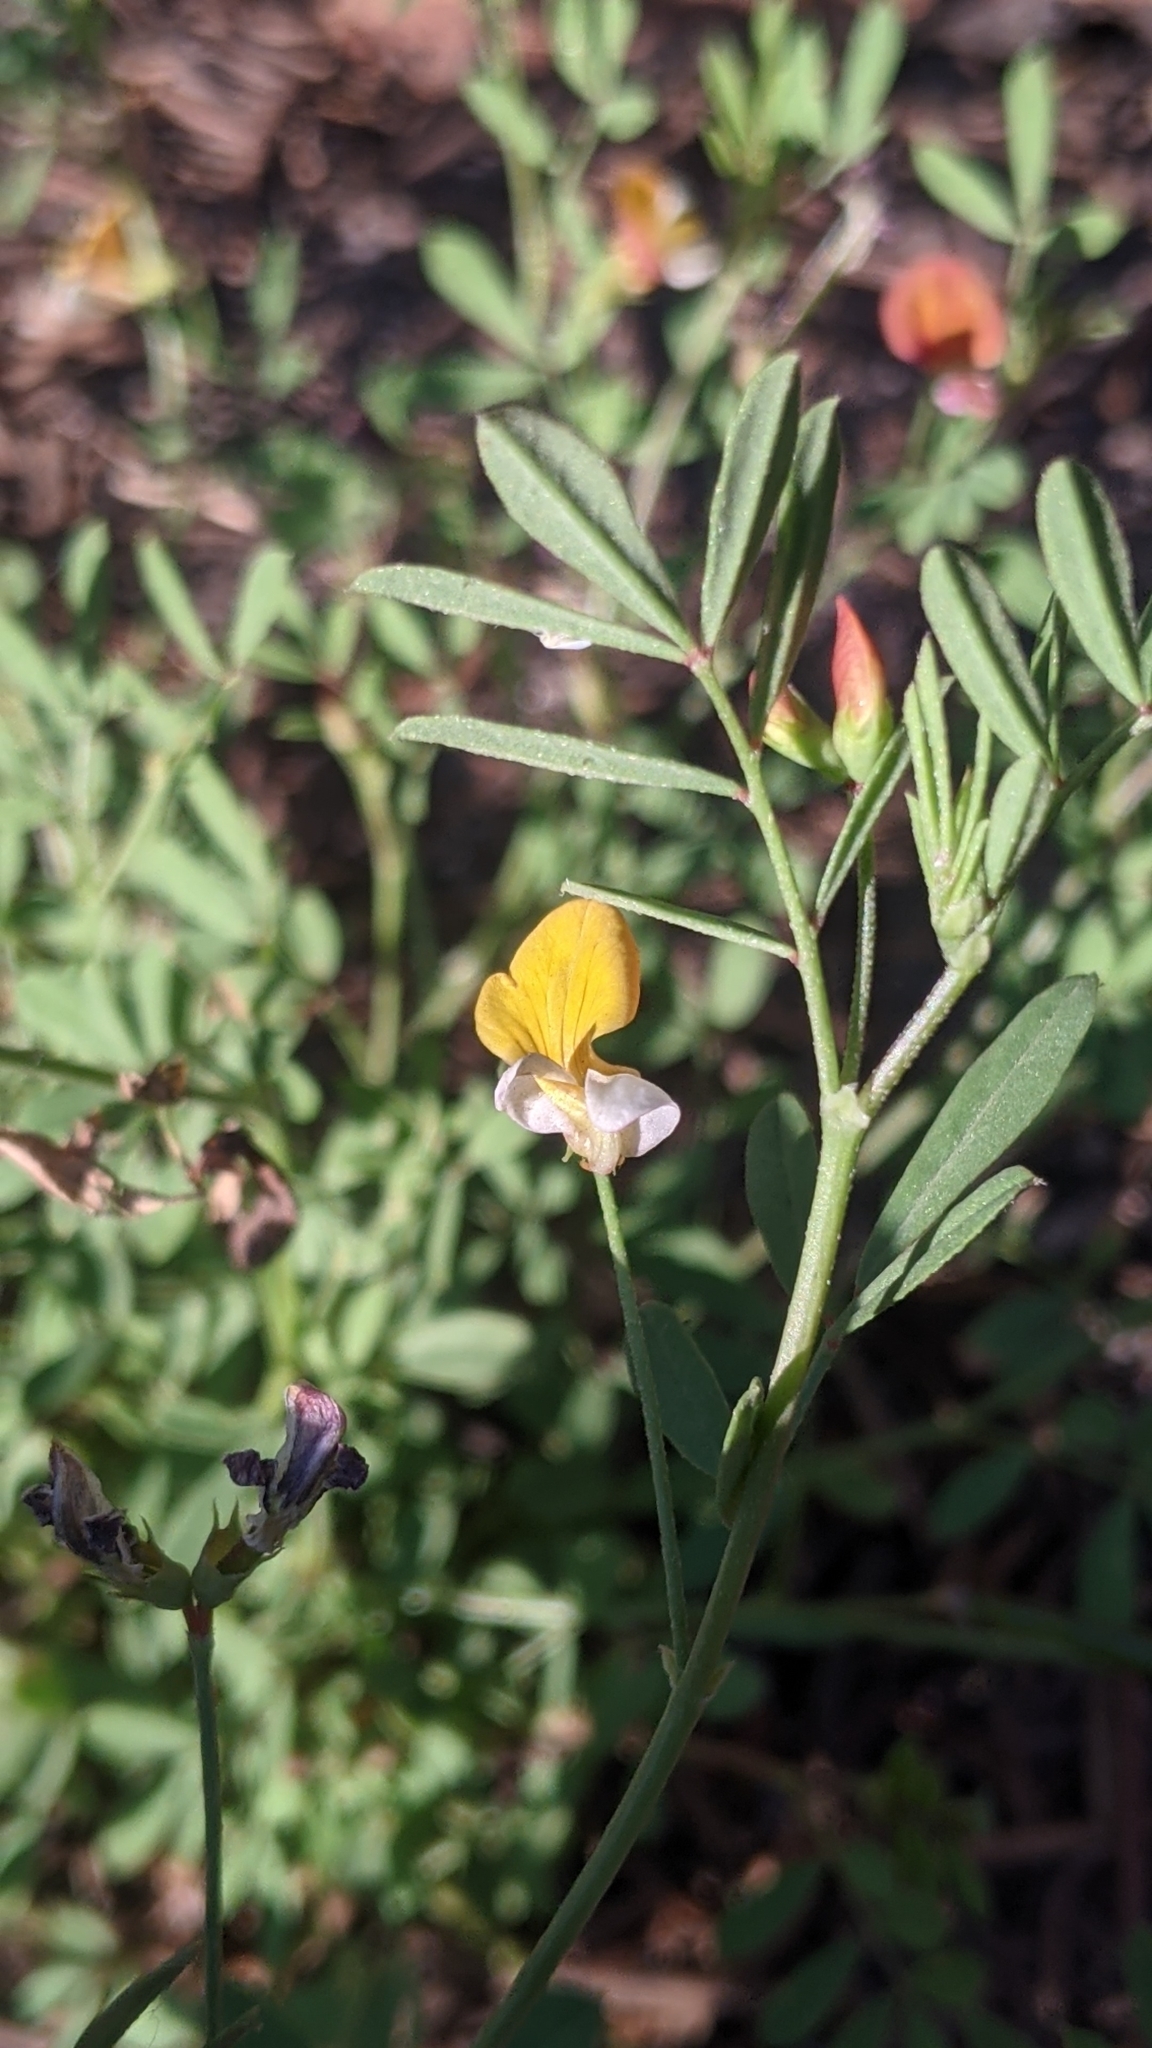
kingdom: Plantae
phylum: Tracheophyta
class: Magnoliopsida
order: Fabales
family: Fabaceae
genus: Hosackia
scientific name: Hosackia oblongifolia
